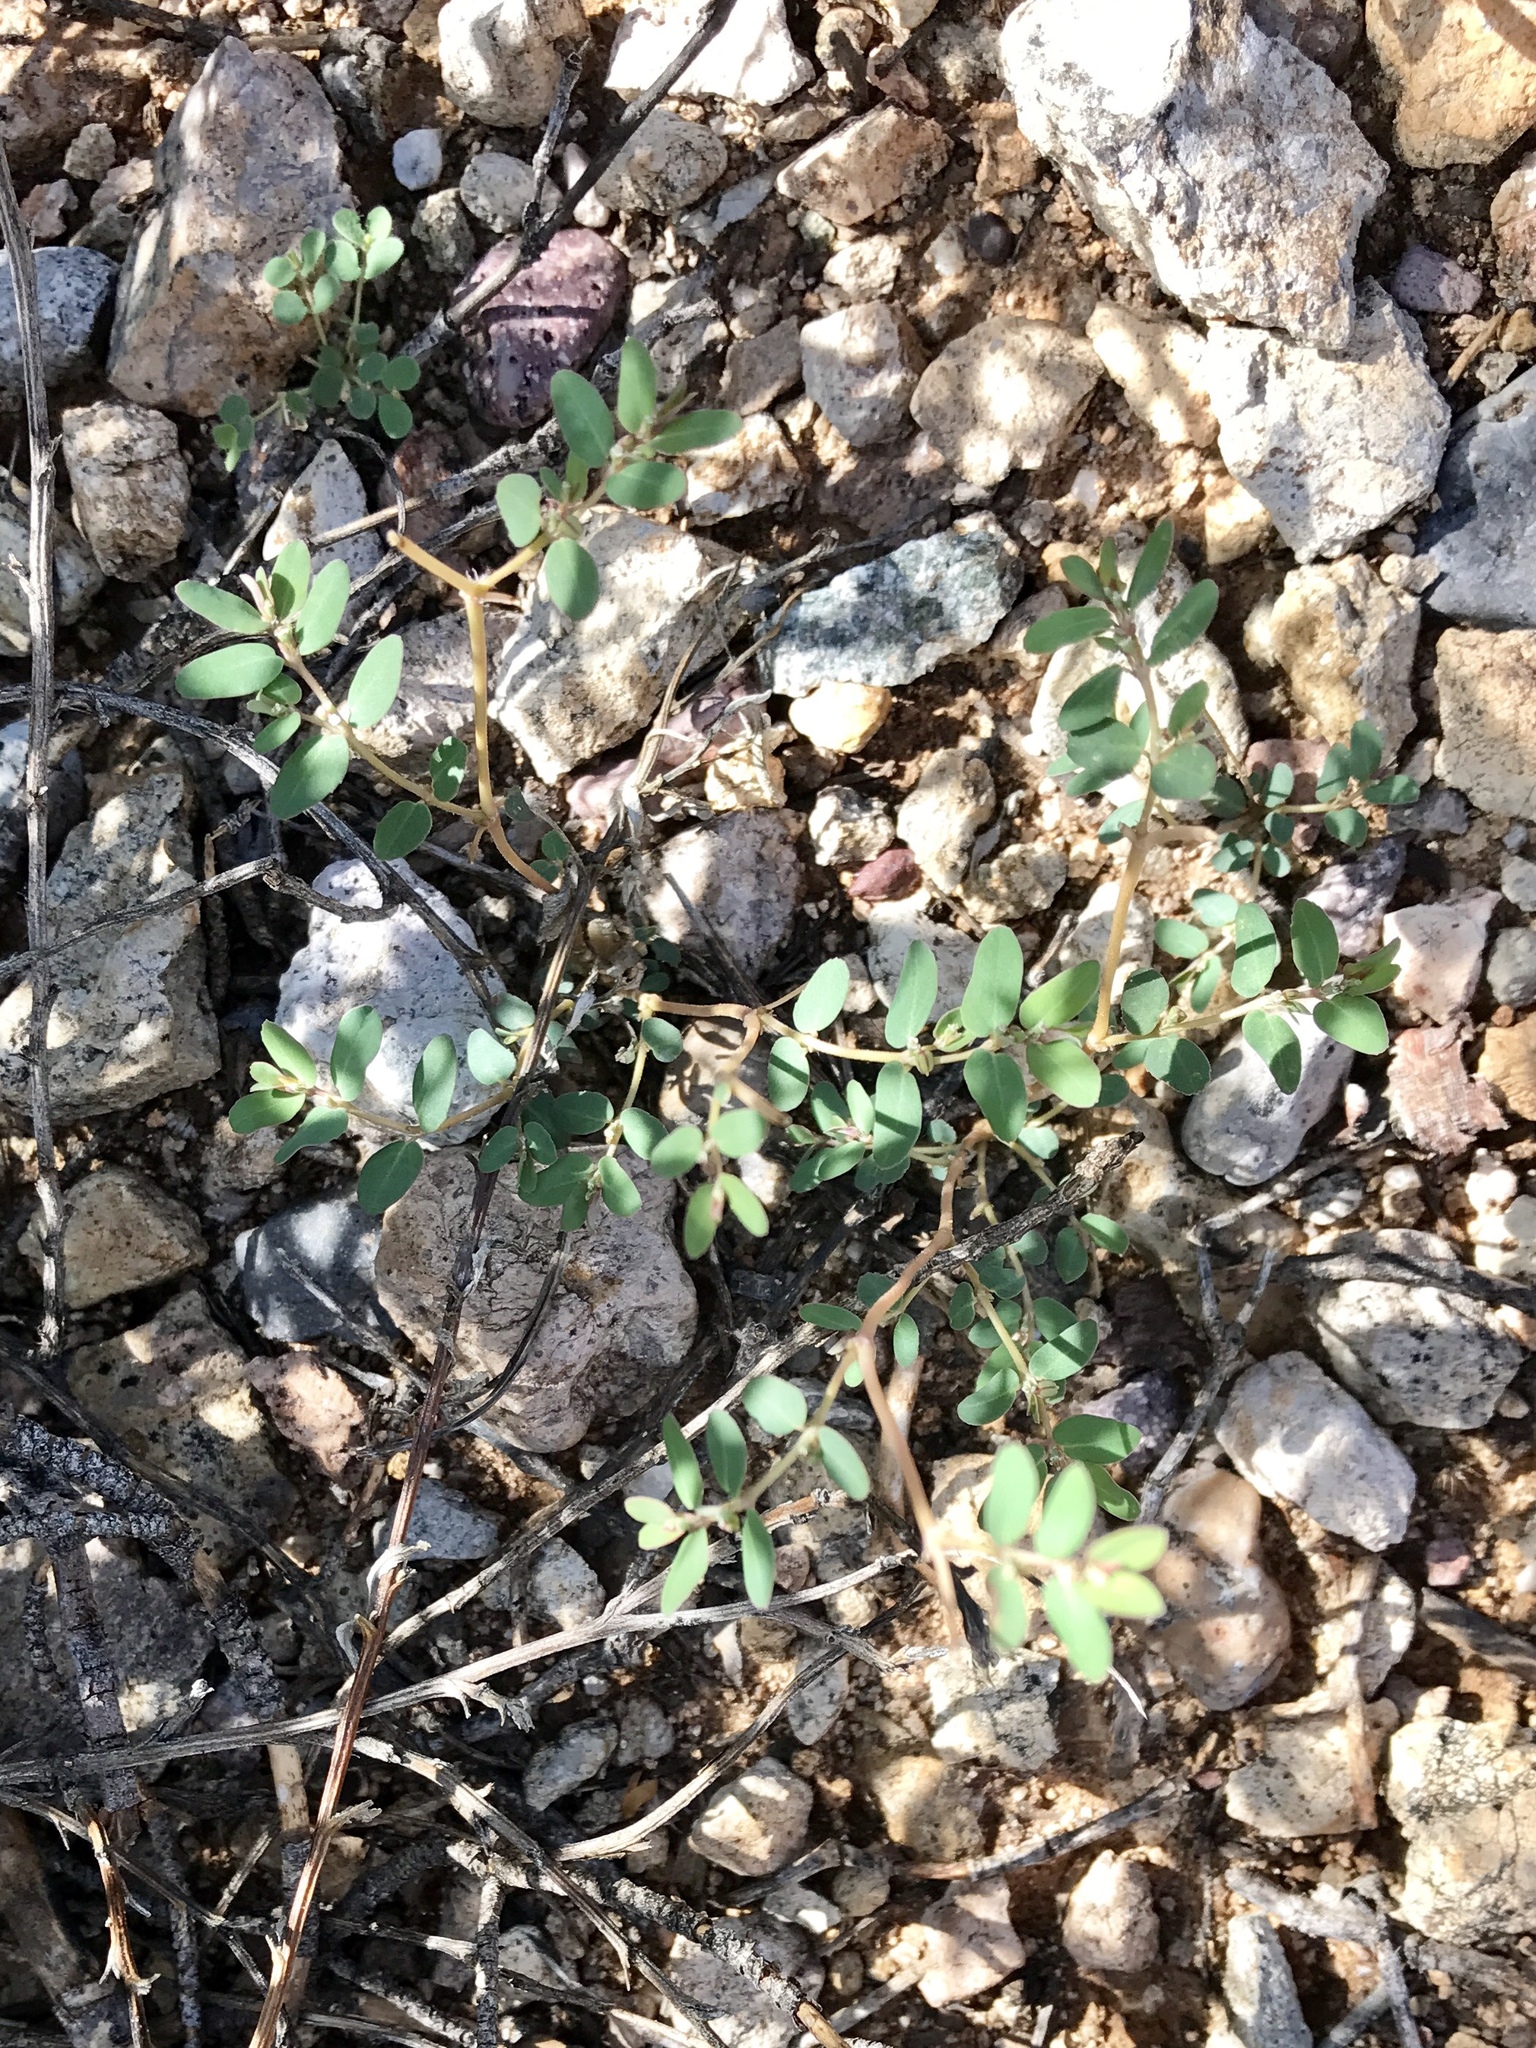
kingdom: Plantae
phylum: Tracheophyta
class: Magnoliopsida
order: Malpighiales
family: Euphorbiaceae
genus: Euphorbia
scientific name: Euphorbia abramsiana
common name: Abram's spurge
